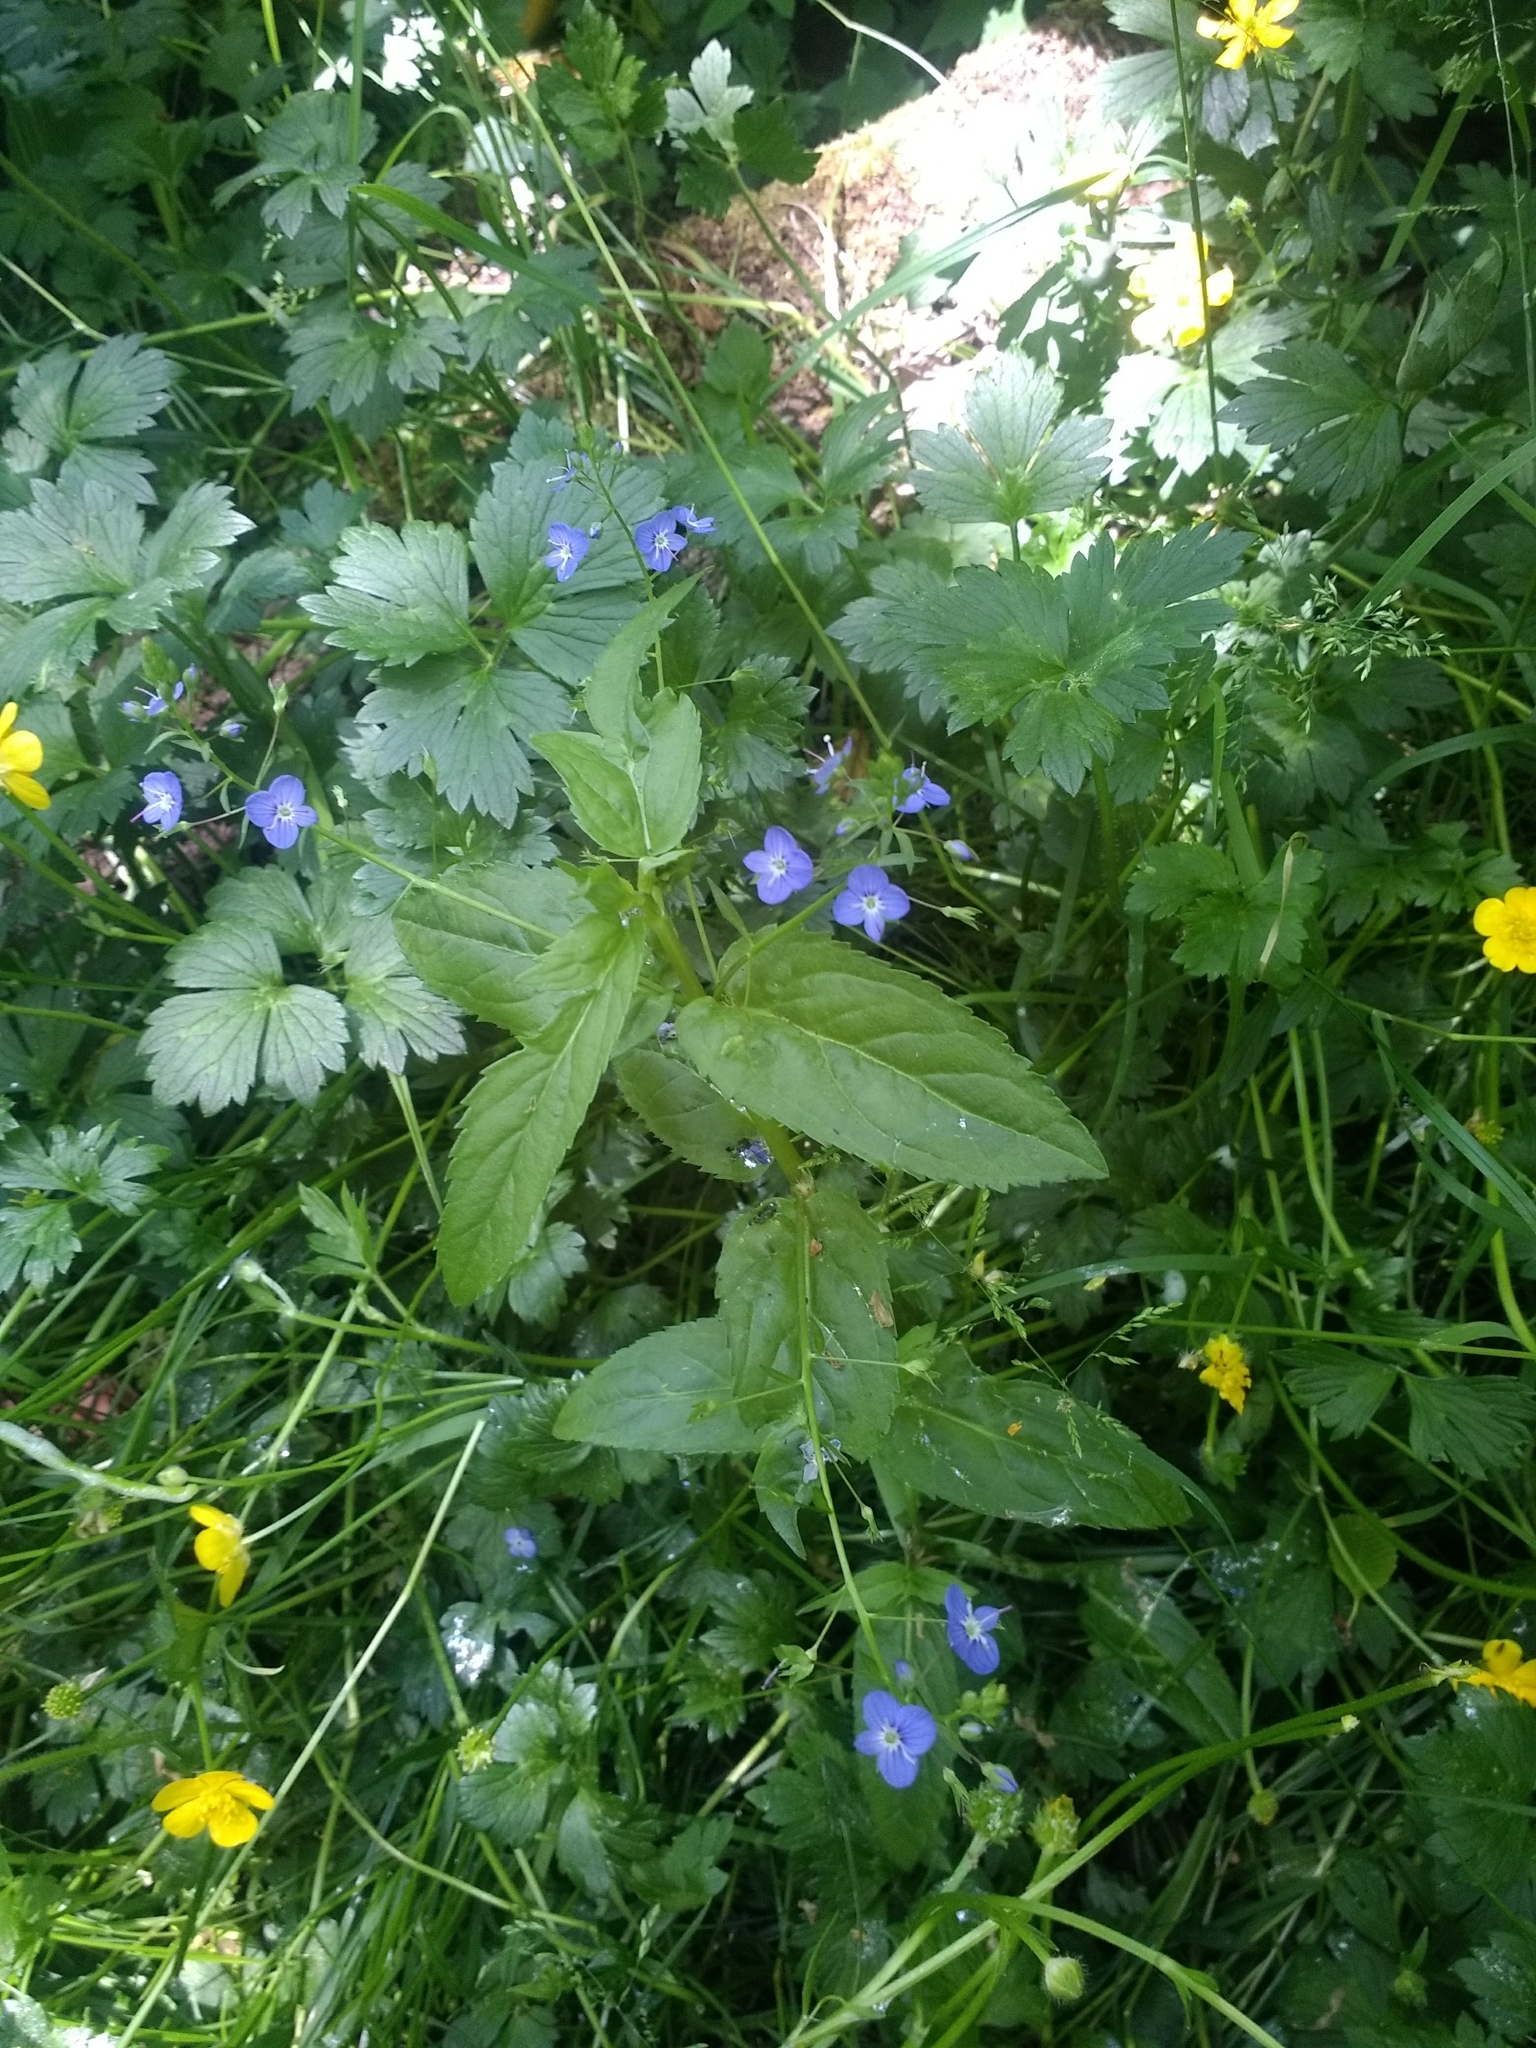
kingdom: Plantae
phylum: Tracheophyta
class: Magnoliopsida
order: Lamiales
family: Plantaginaceae
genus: Veronica
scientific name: Veronica americana
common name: American brooklime
